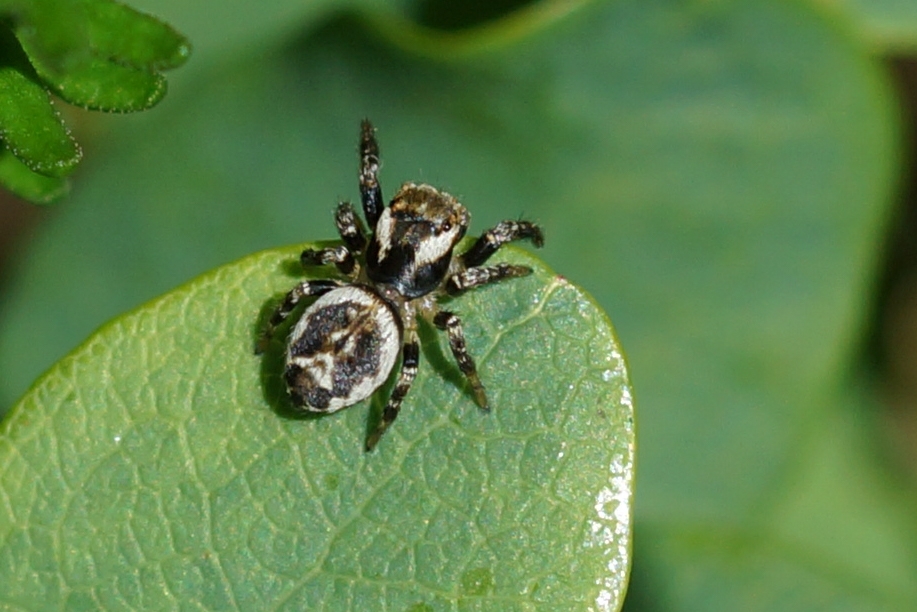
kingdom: Animalia
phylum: Arthropoda
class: Arachnida
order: Araneae
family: Salticidae
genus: Evarcha
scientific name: Evarcha falcata
